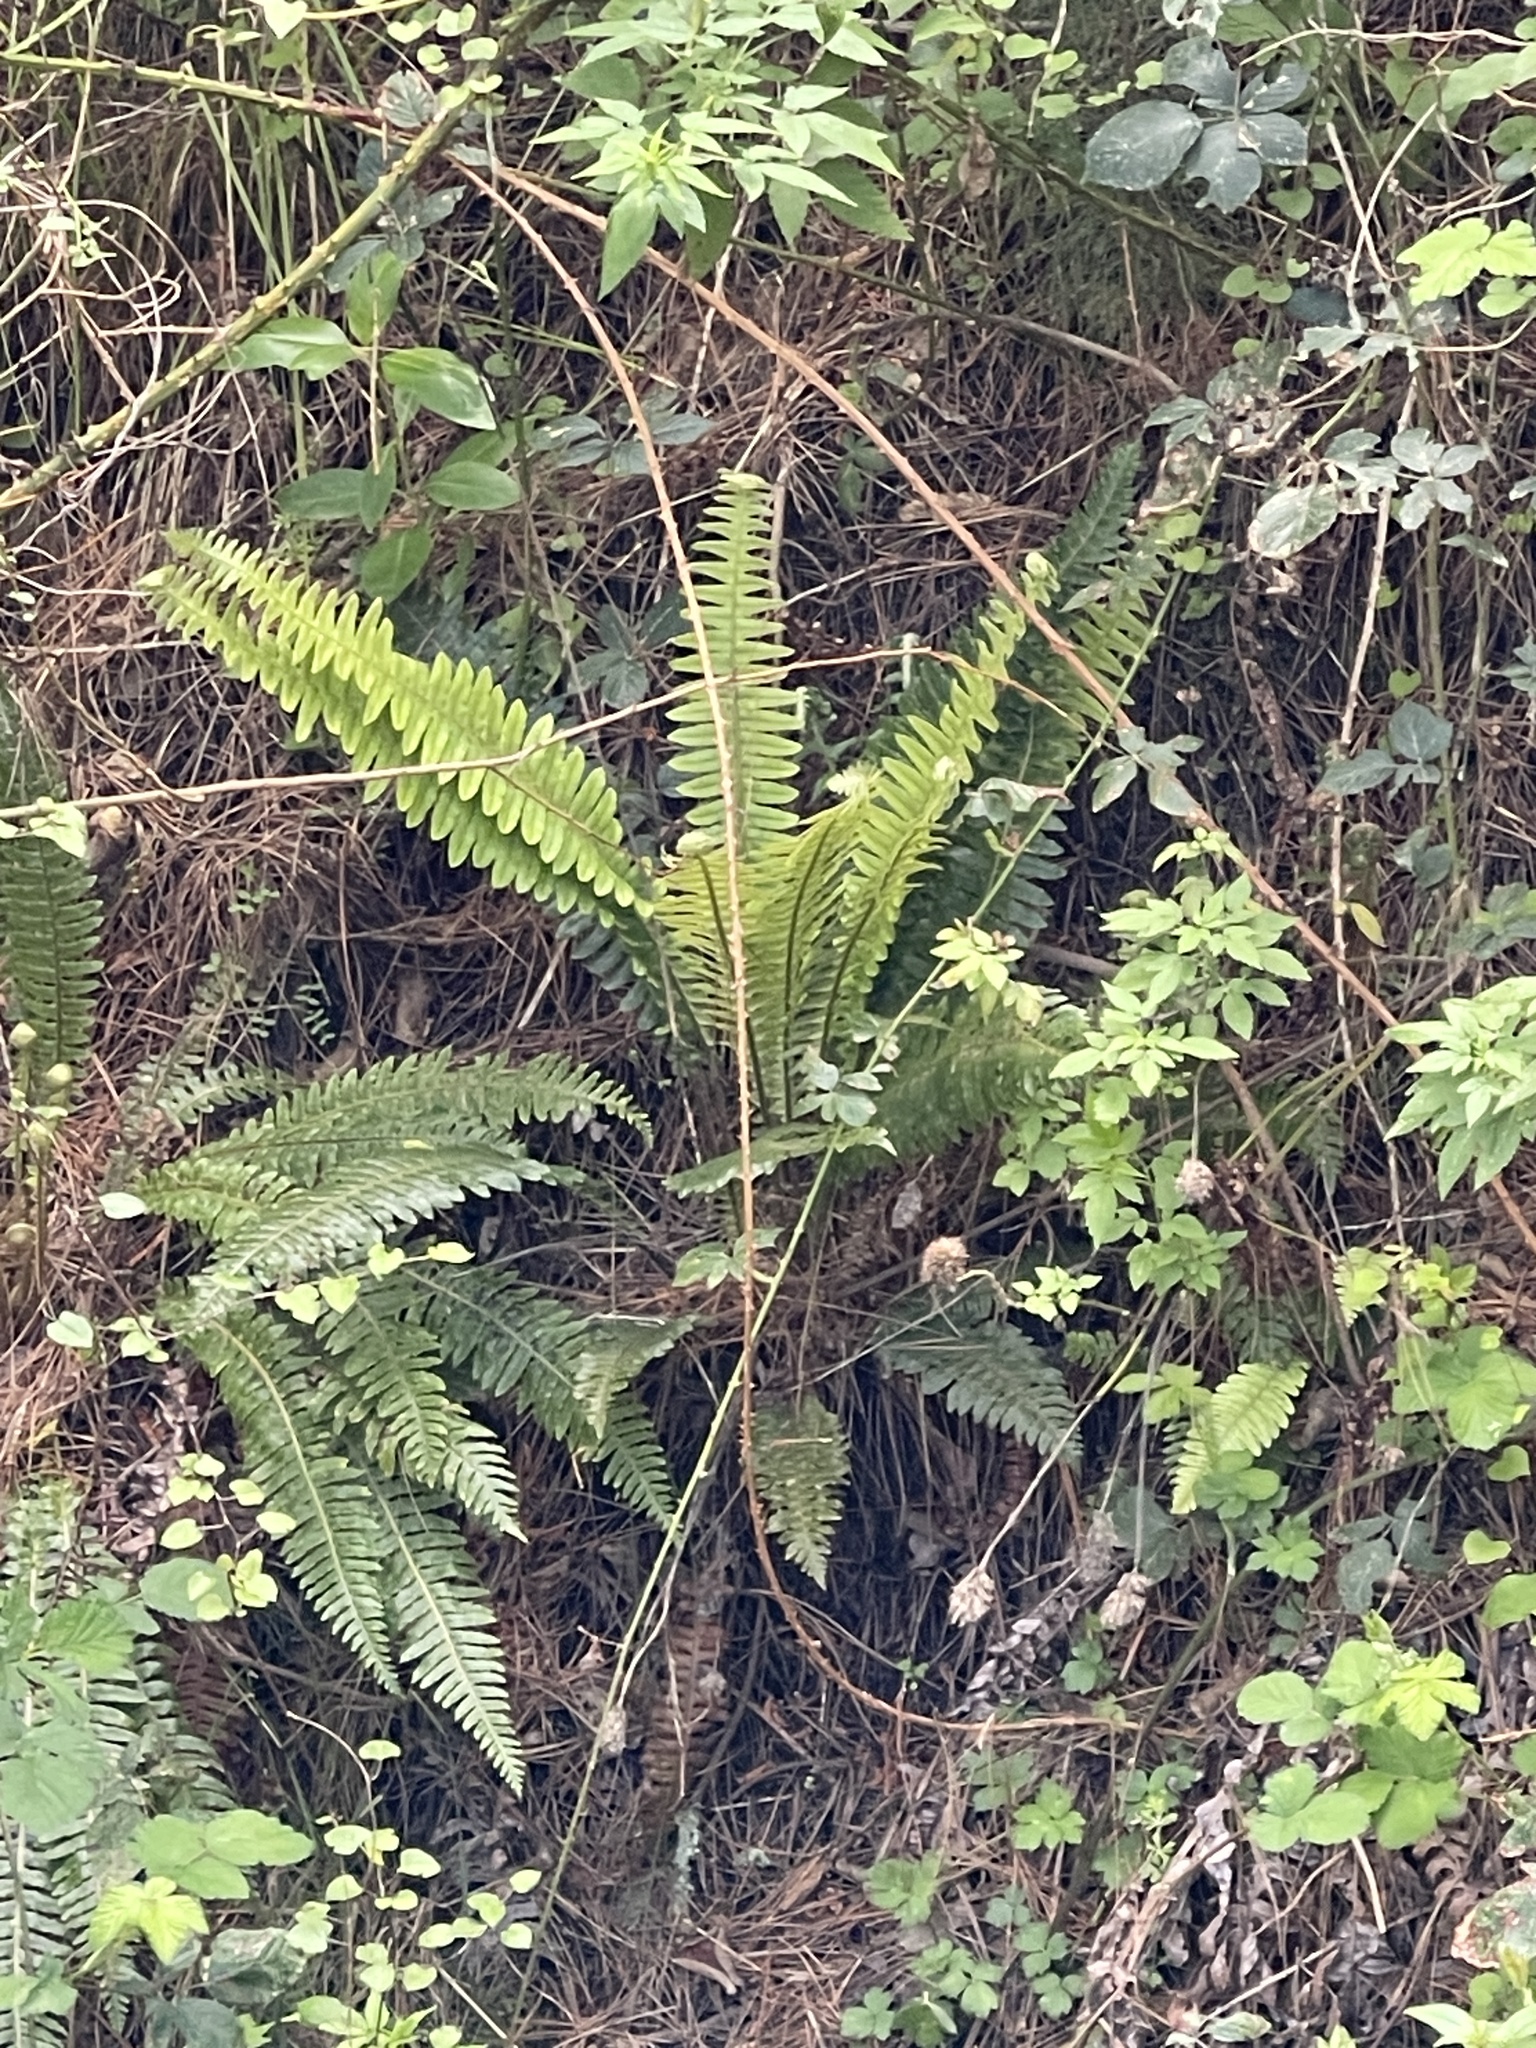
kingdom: Plantae
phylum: Tracheophyta
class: Polypodiopsida
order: Polypodiales
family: Blechnaceae
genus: Lomaria
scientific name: Lomaria discolor
